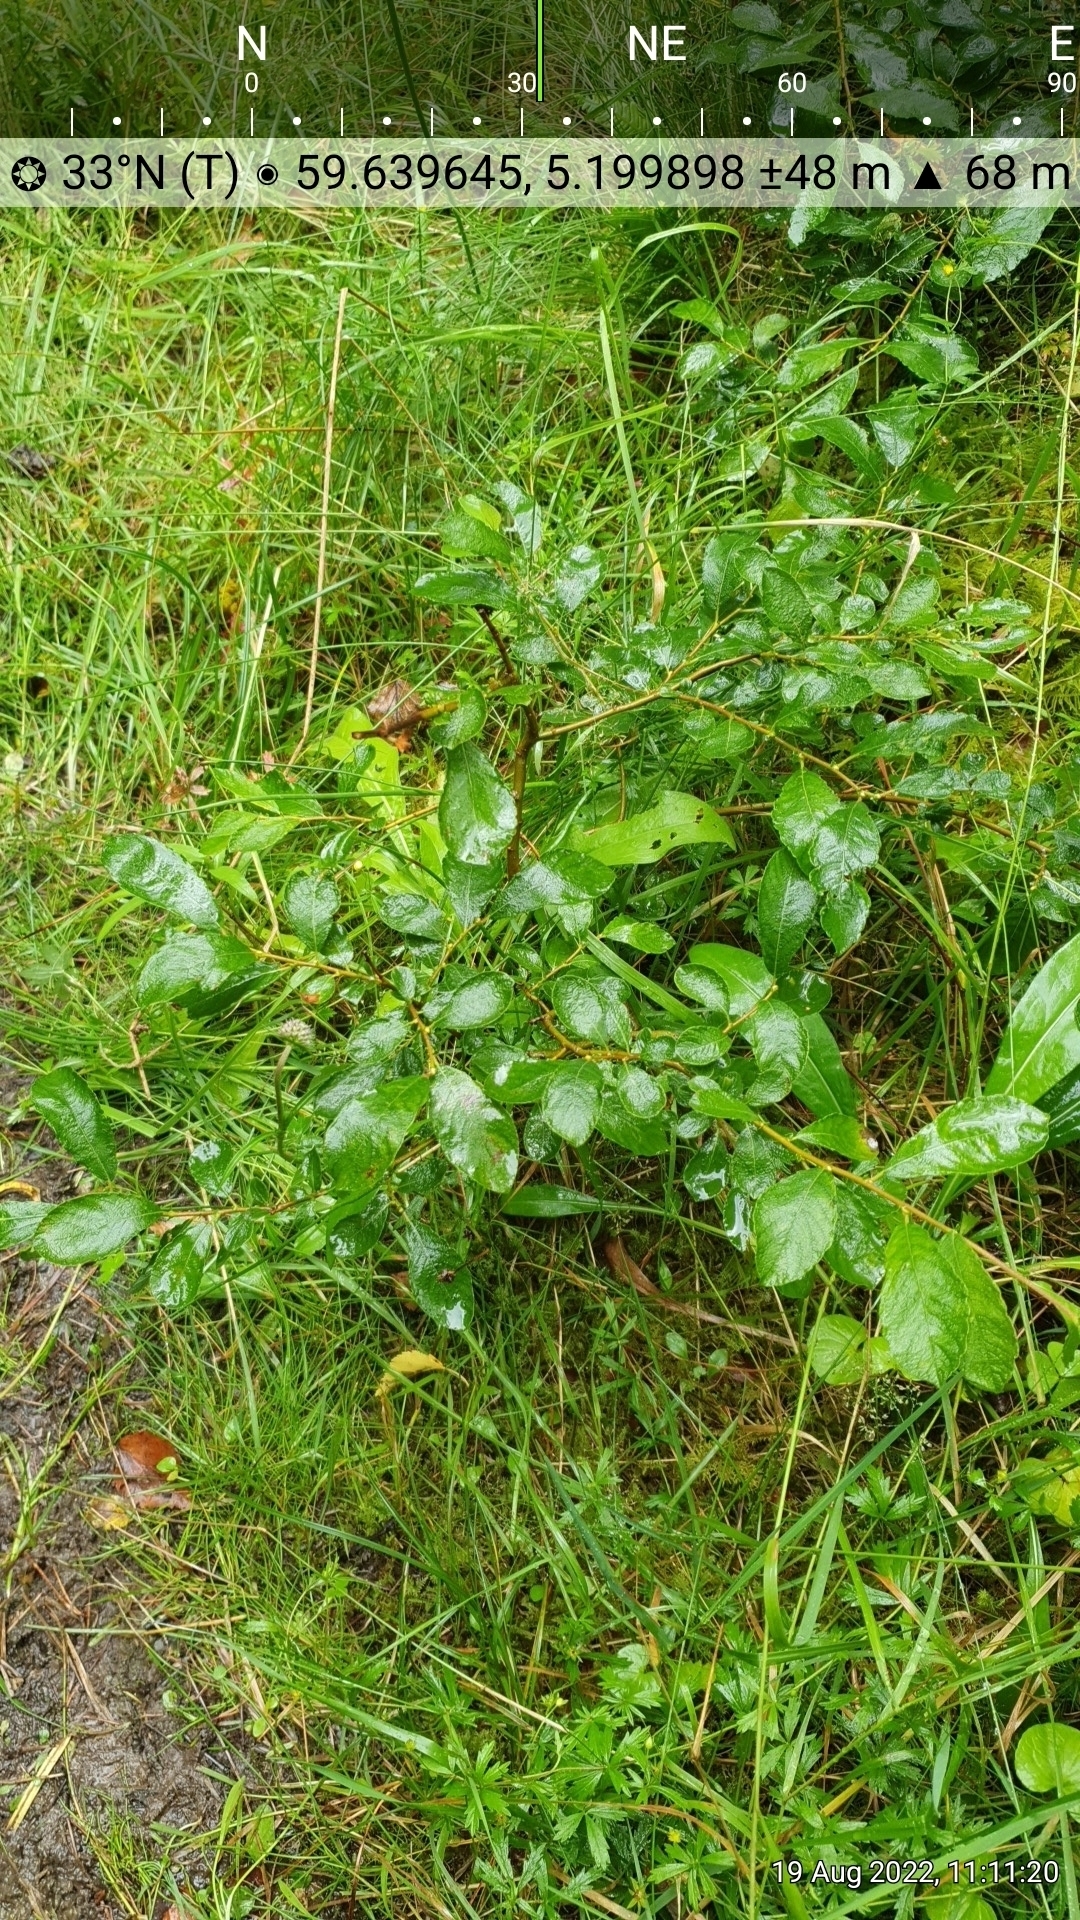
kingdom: Plantae
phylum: Tracheophyta
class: Magnoliopsida
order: Malpighiales
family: Salicaceae
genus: Salix
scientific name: Salix aurita
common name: Eared willow
